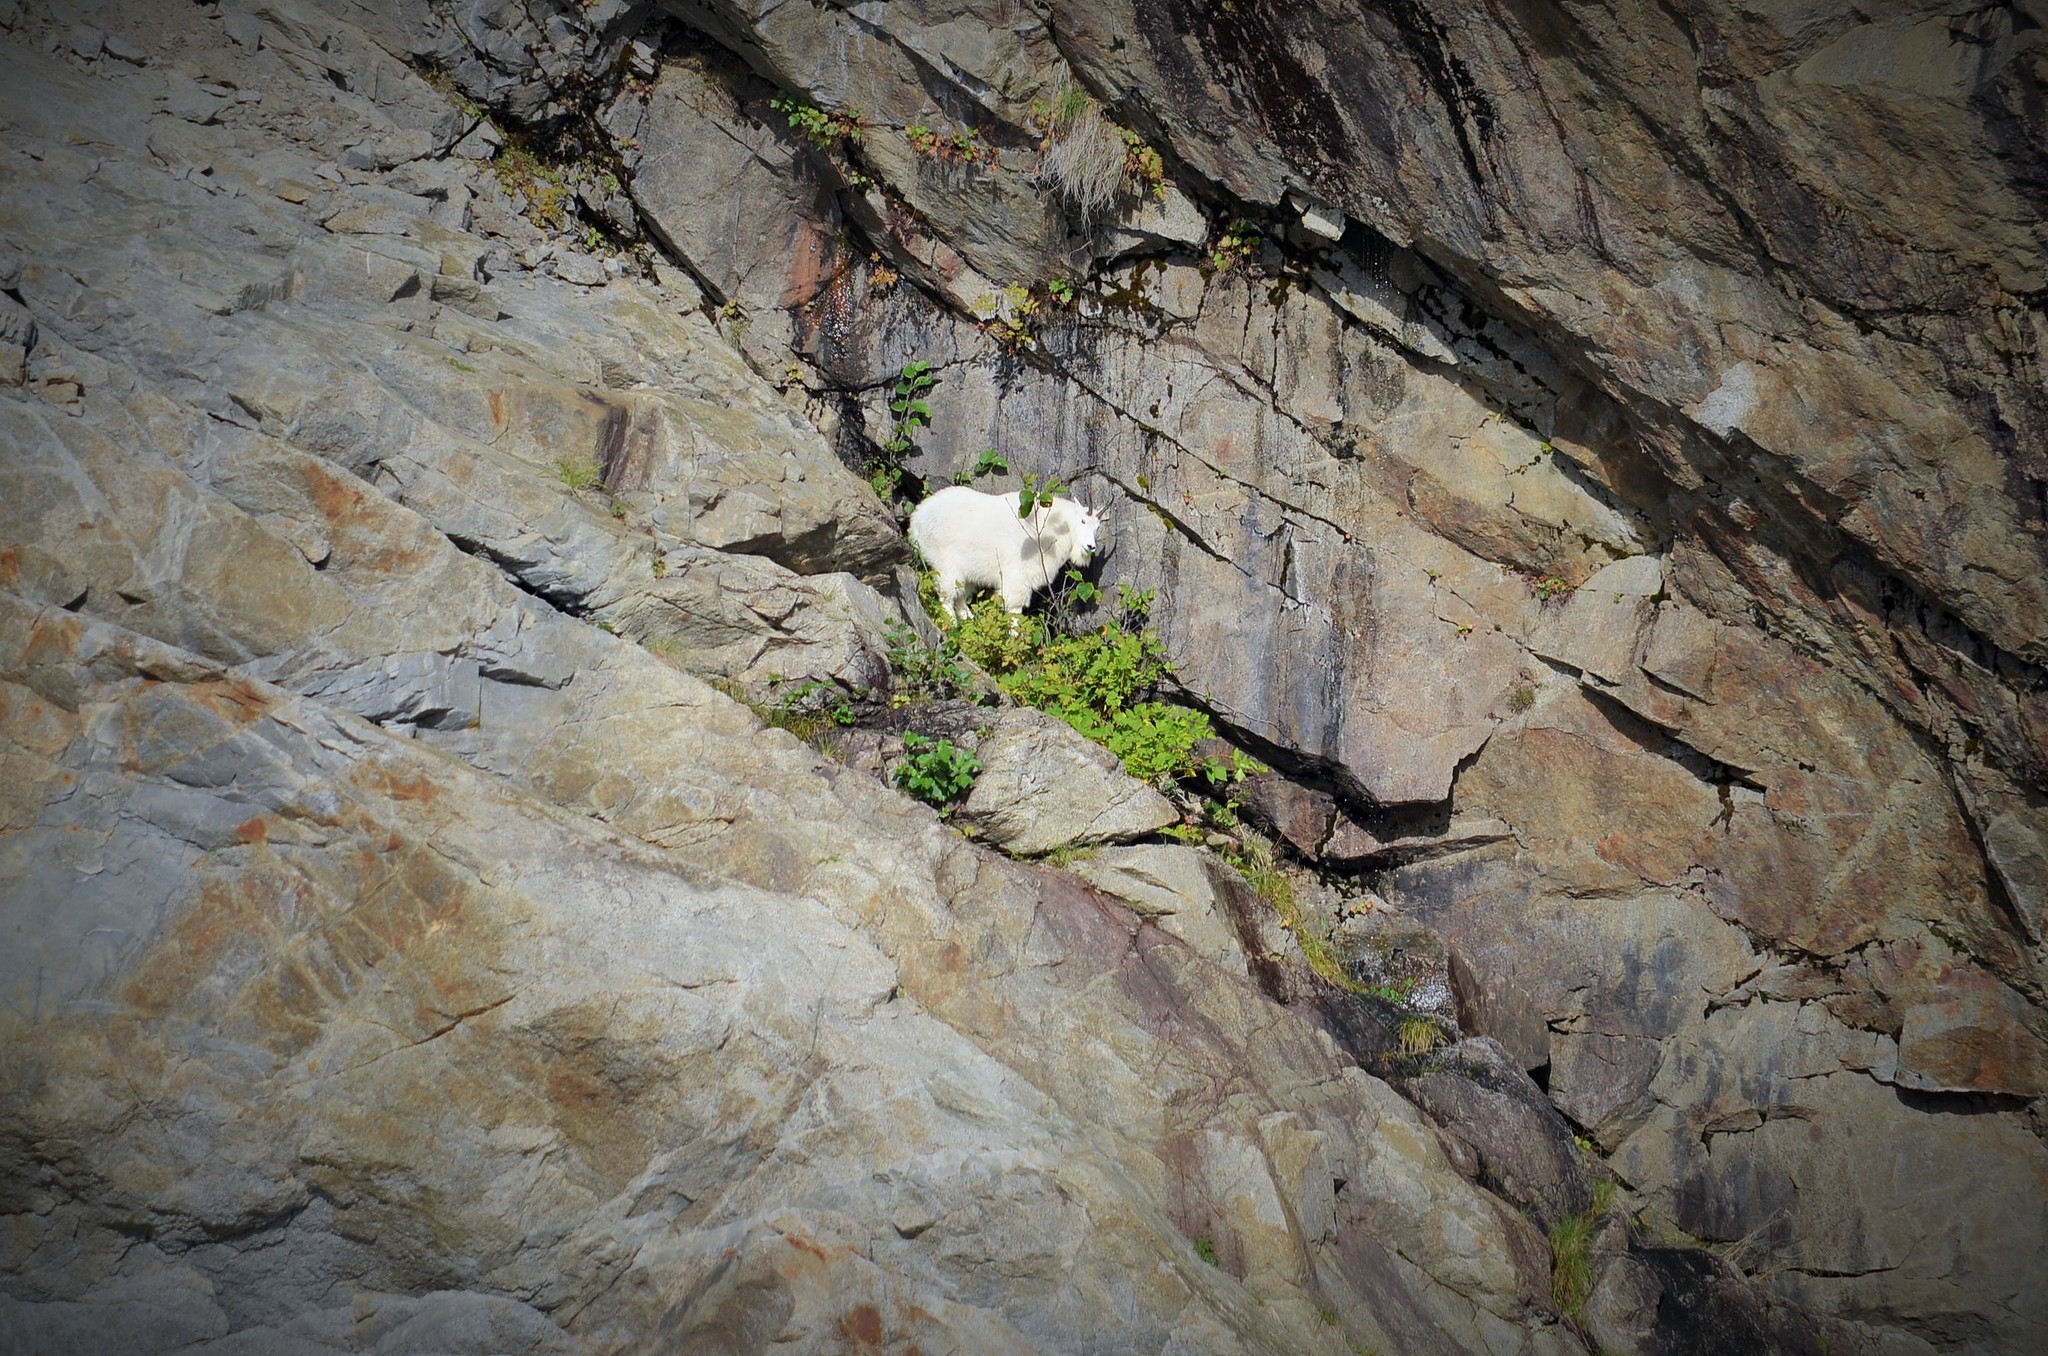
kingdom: Animalia
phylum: Chordata
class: Mammalia
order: Artiodactyla
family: Bovidae
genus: Oreamnos
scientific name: Oreamnos americanus
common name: Mountain goat
